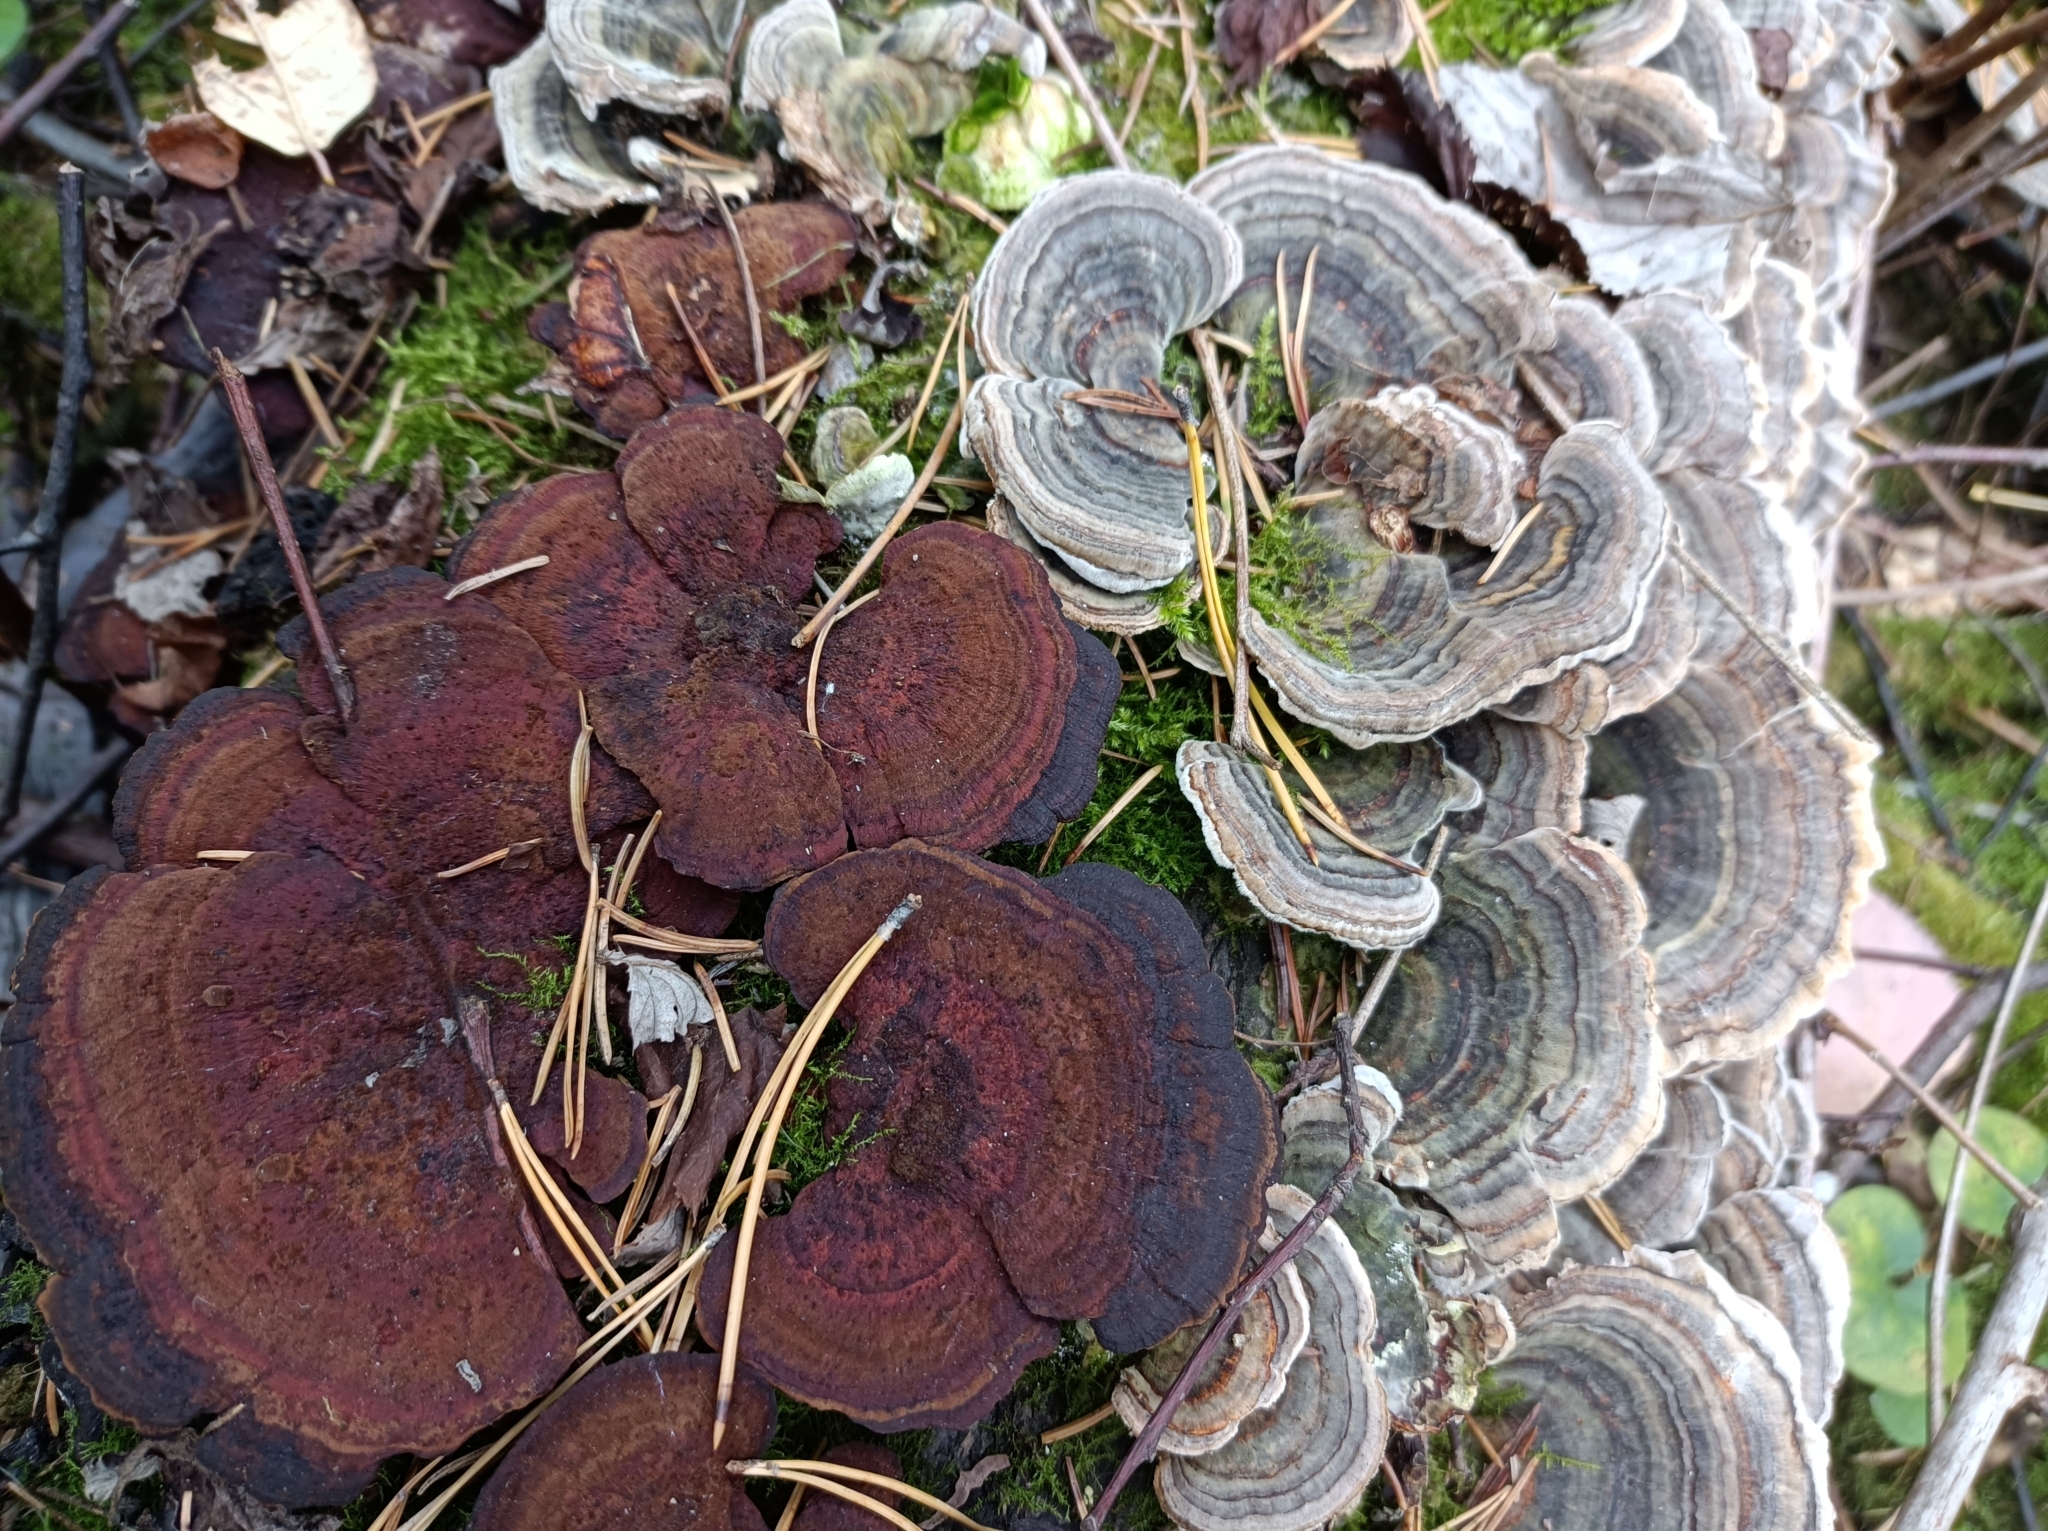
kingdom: Fungi
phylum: Basidiomycota
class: Agaricomycetes
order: Polyporales
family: Polyporaceae
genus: Daedaleopsis
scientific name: Daedaleopsis tricolor
